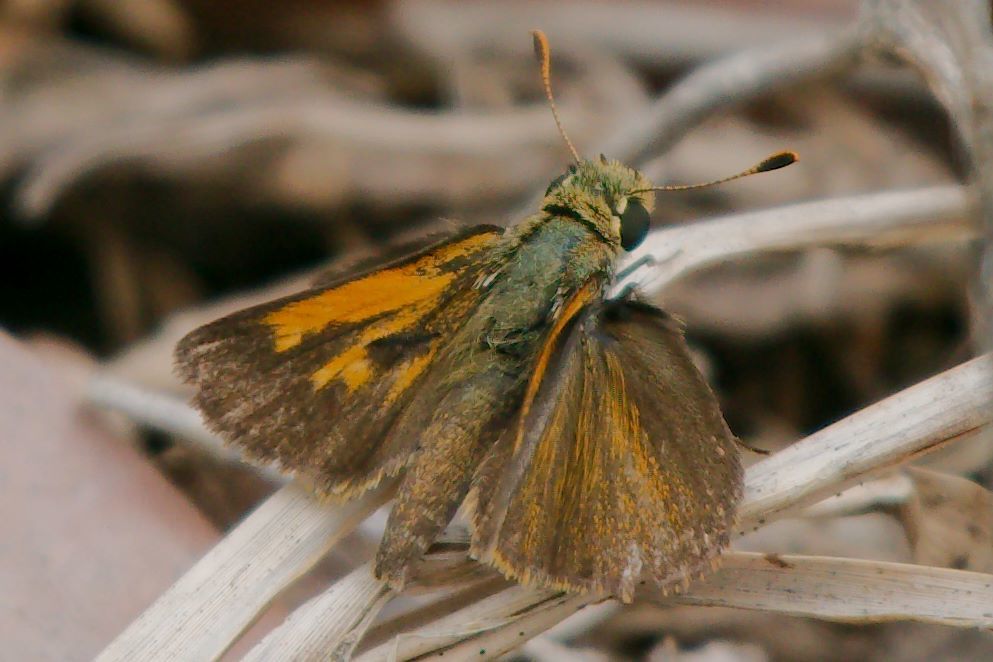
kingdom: Animalia
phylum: Arthropoda
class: Insecta
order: Lepidoptera
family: Hesperiidae
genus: Polites
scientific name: Polites baracoa
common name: Baracoa skipper
